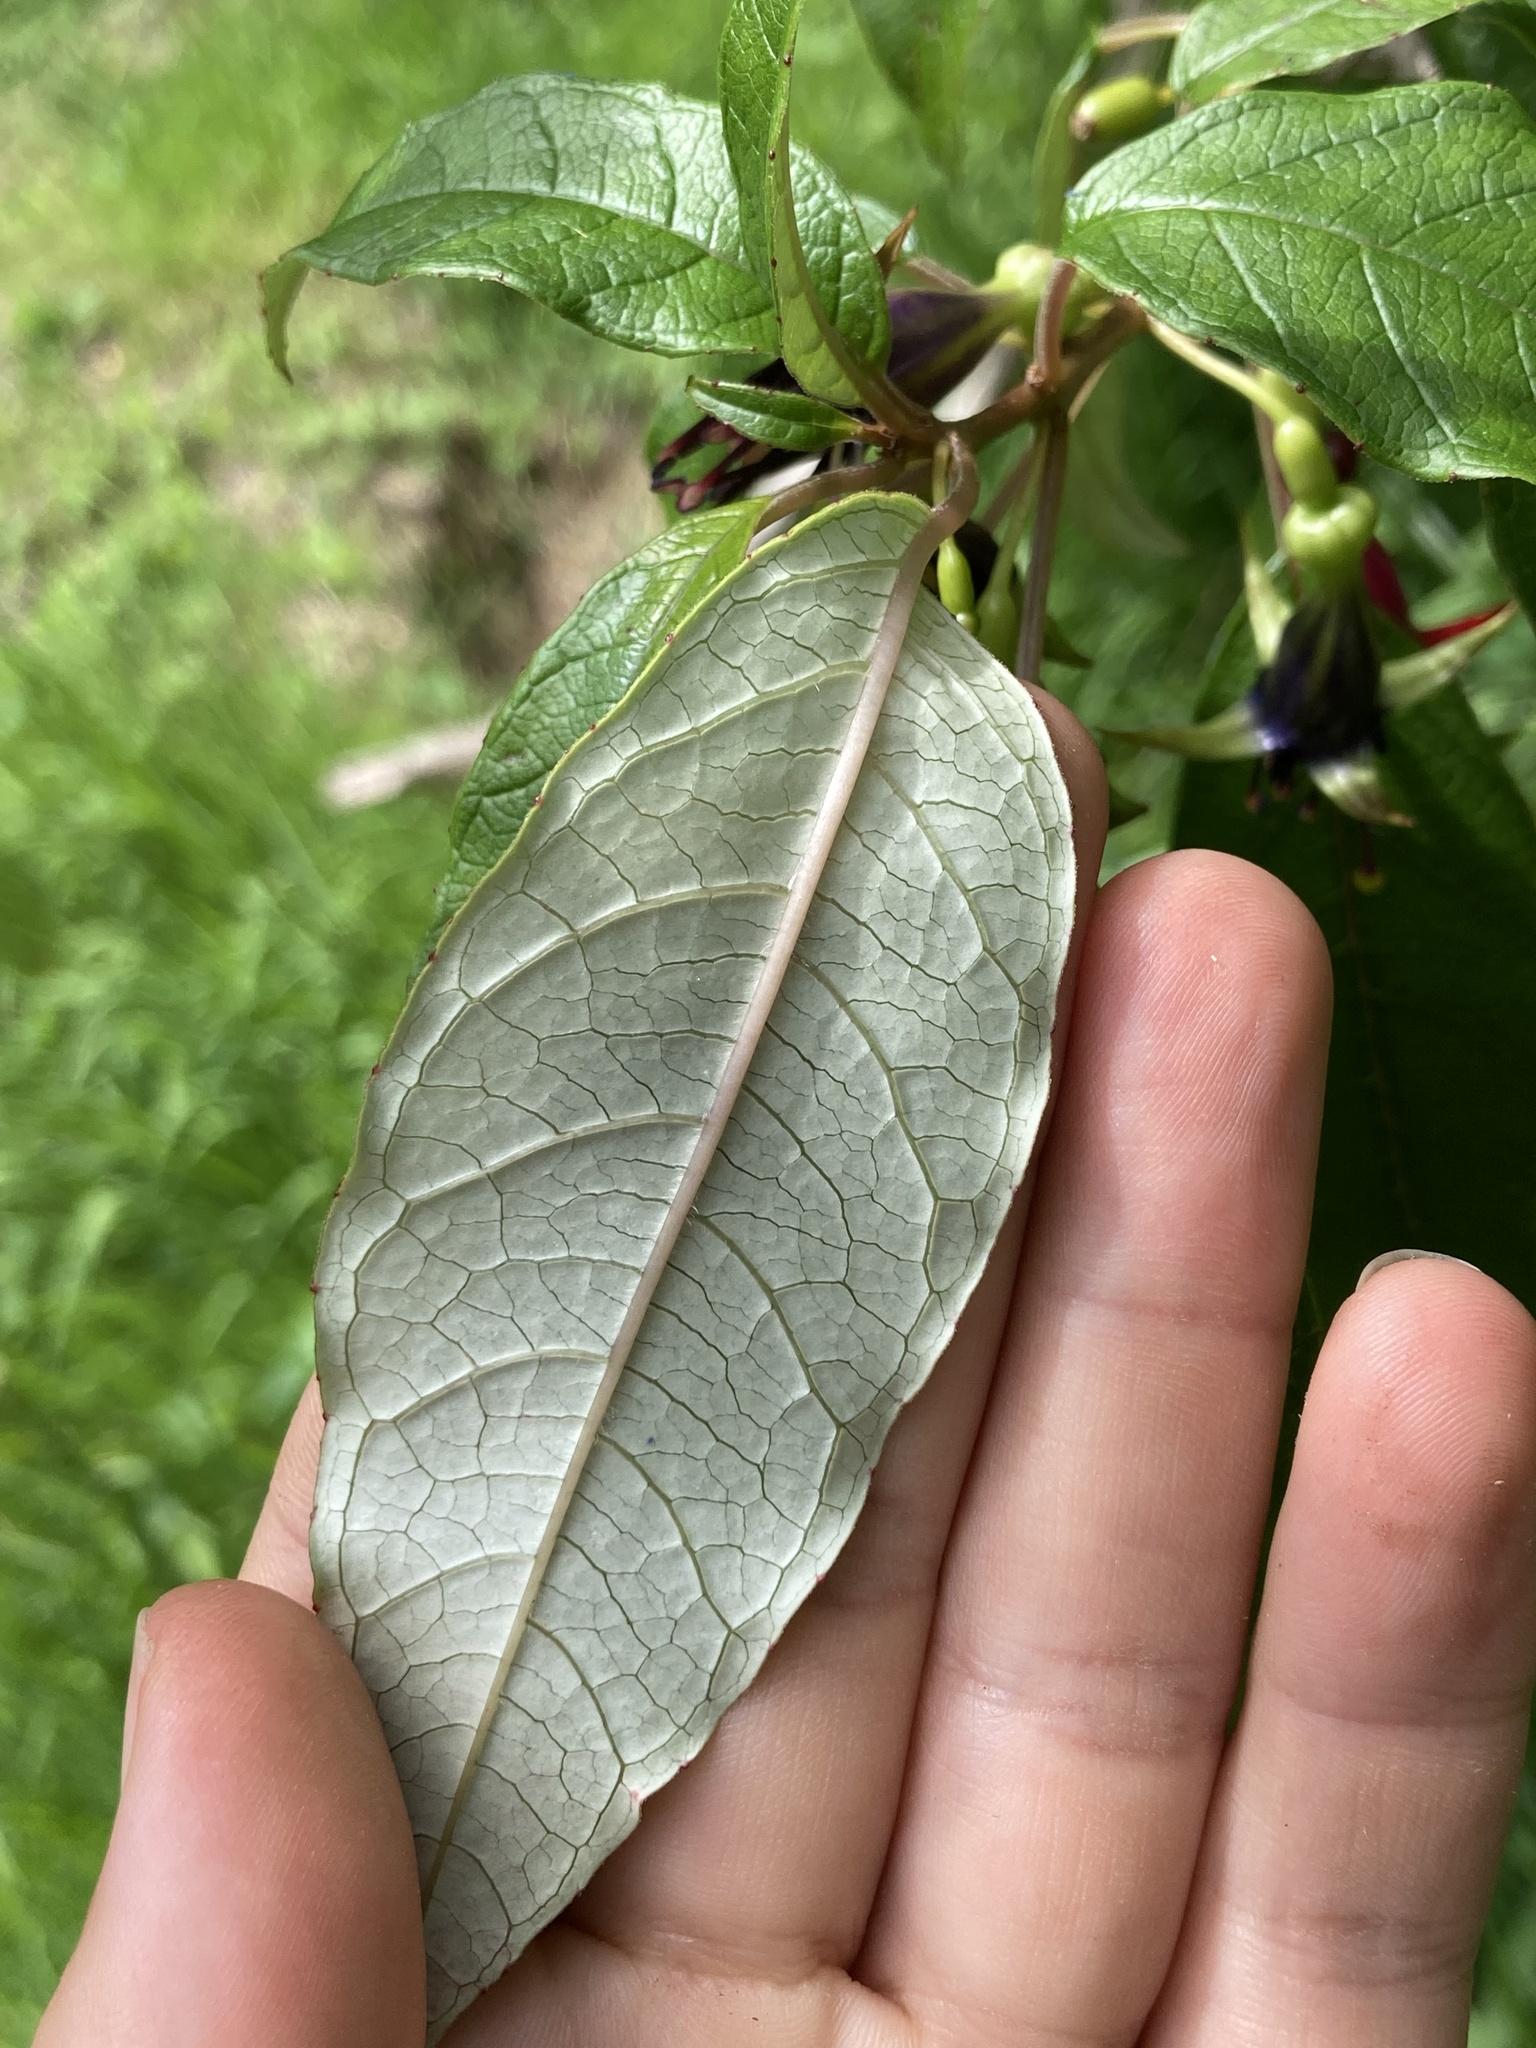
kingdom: Plantae
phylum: Tracheophyta
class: Magnoliopsida
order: Myrtales
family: Onagraceae
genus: Fuchsia
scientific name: Fuchsia excorticata
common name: Tree fuchsia
